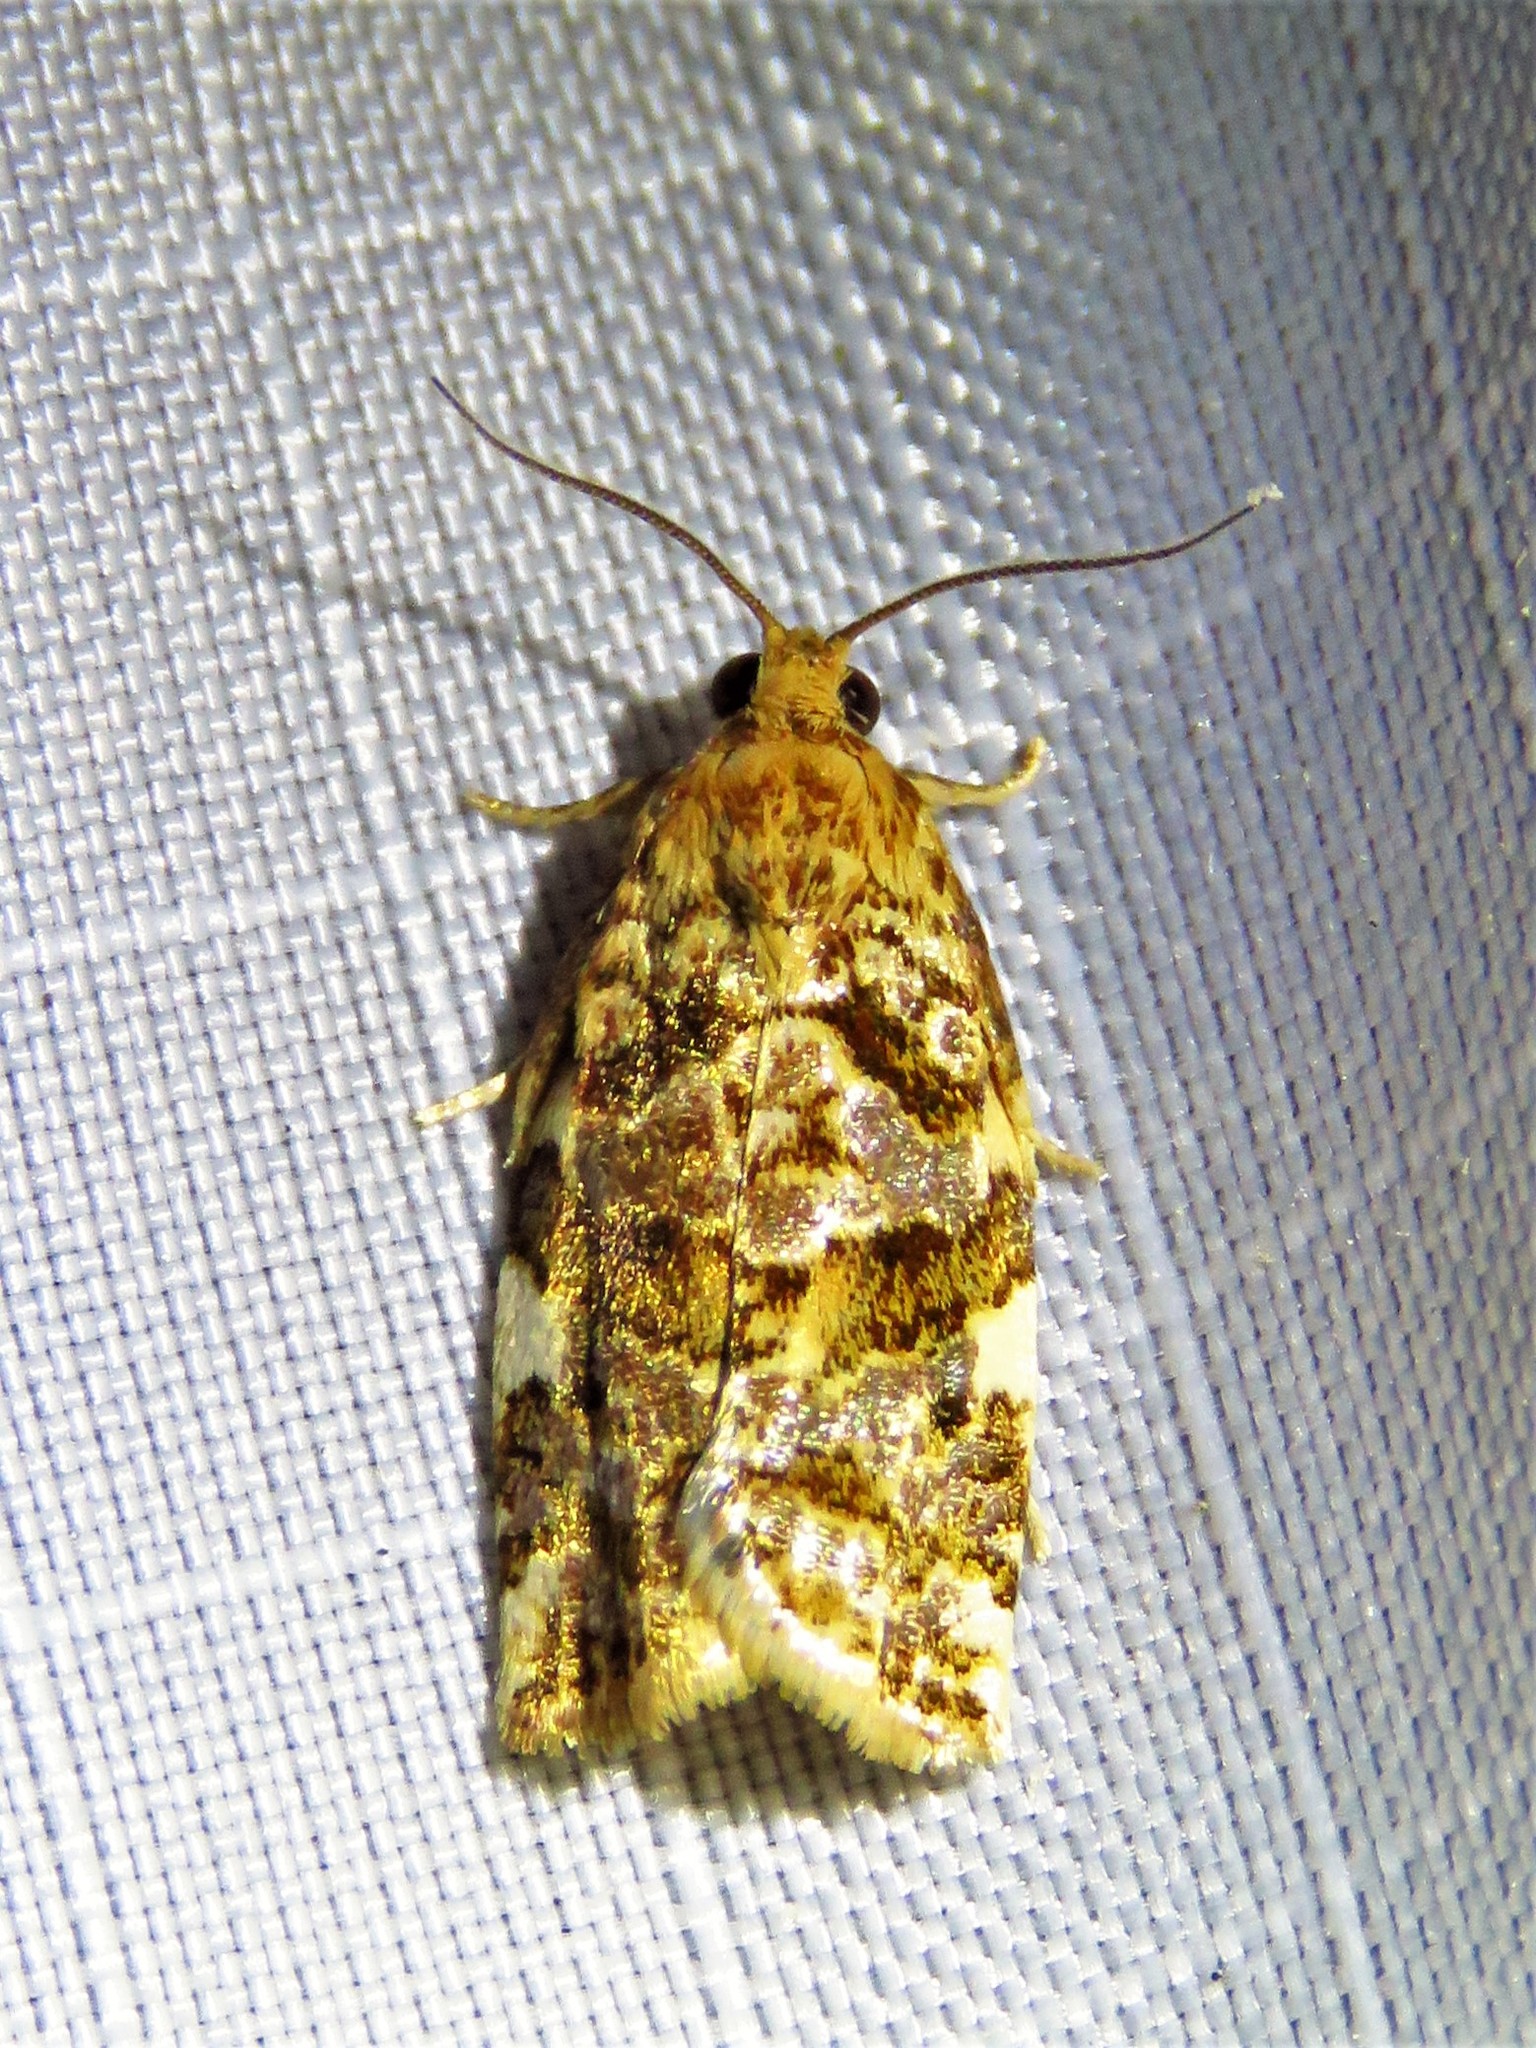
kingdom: Animalia
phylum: Arthropoda
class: Insecta
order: Lepidoptera
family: Tortricidae
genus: Archips
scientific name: Archips argyrospila
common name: Fruit-tree leafroller moth
